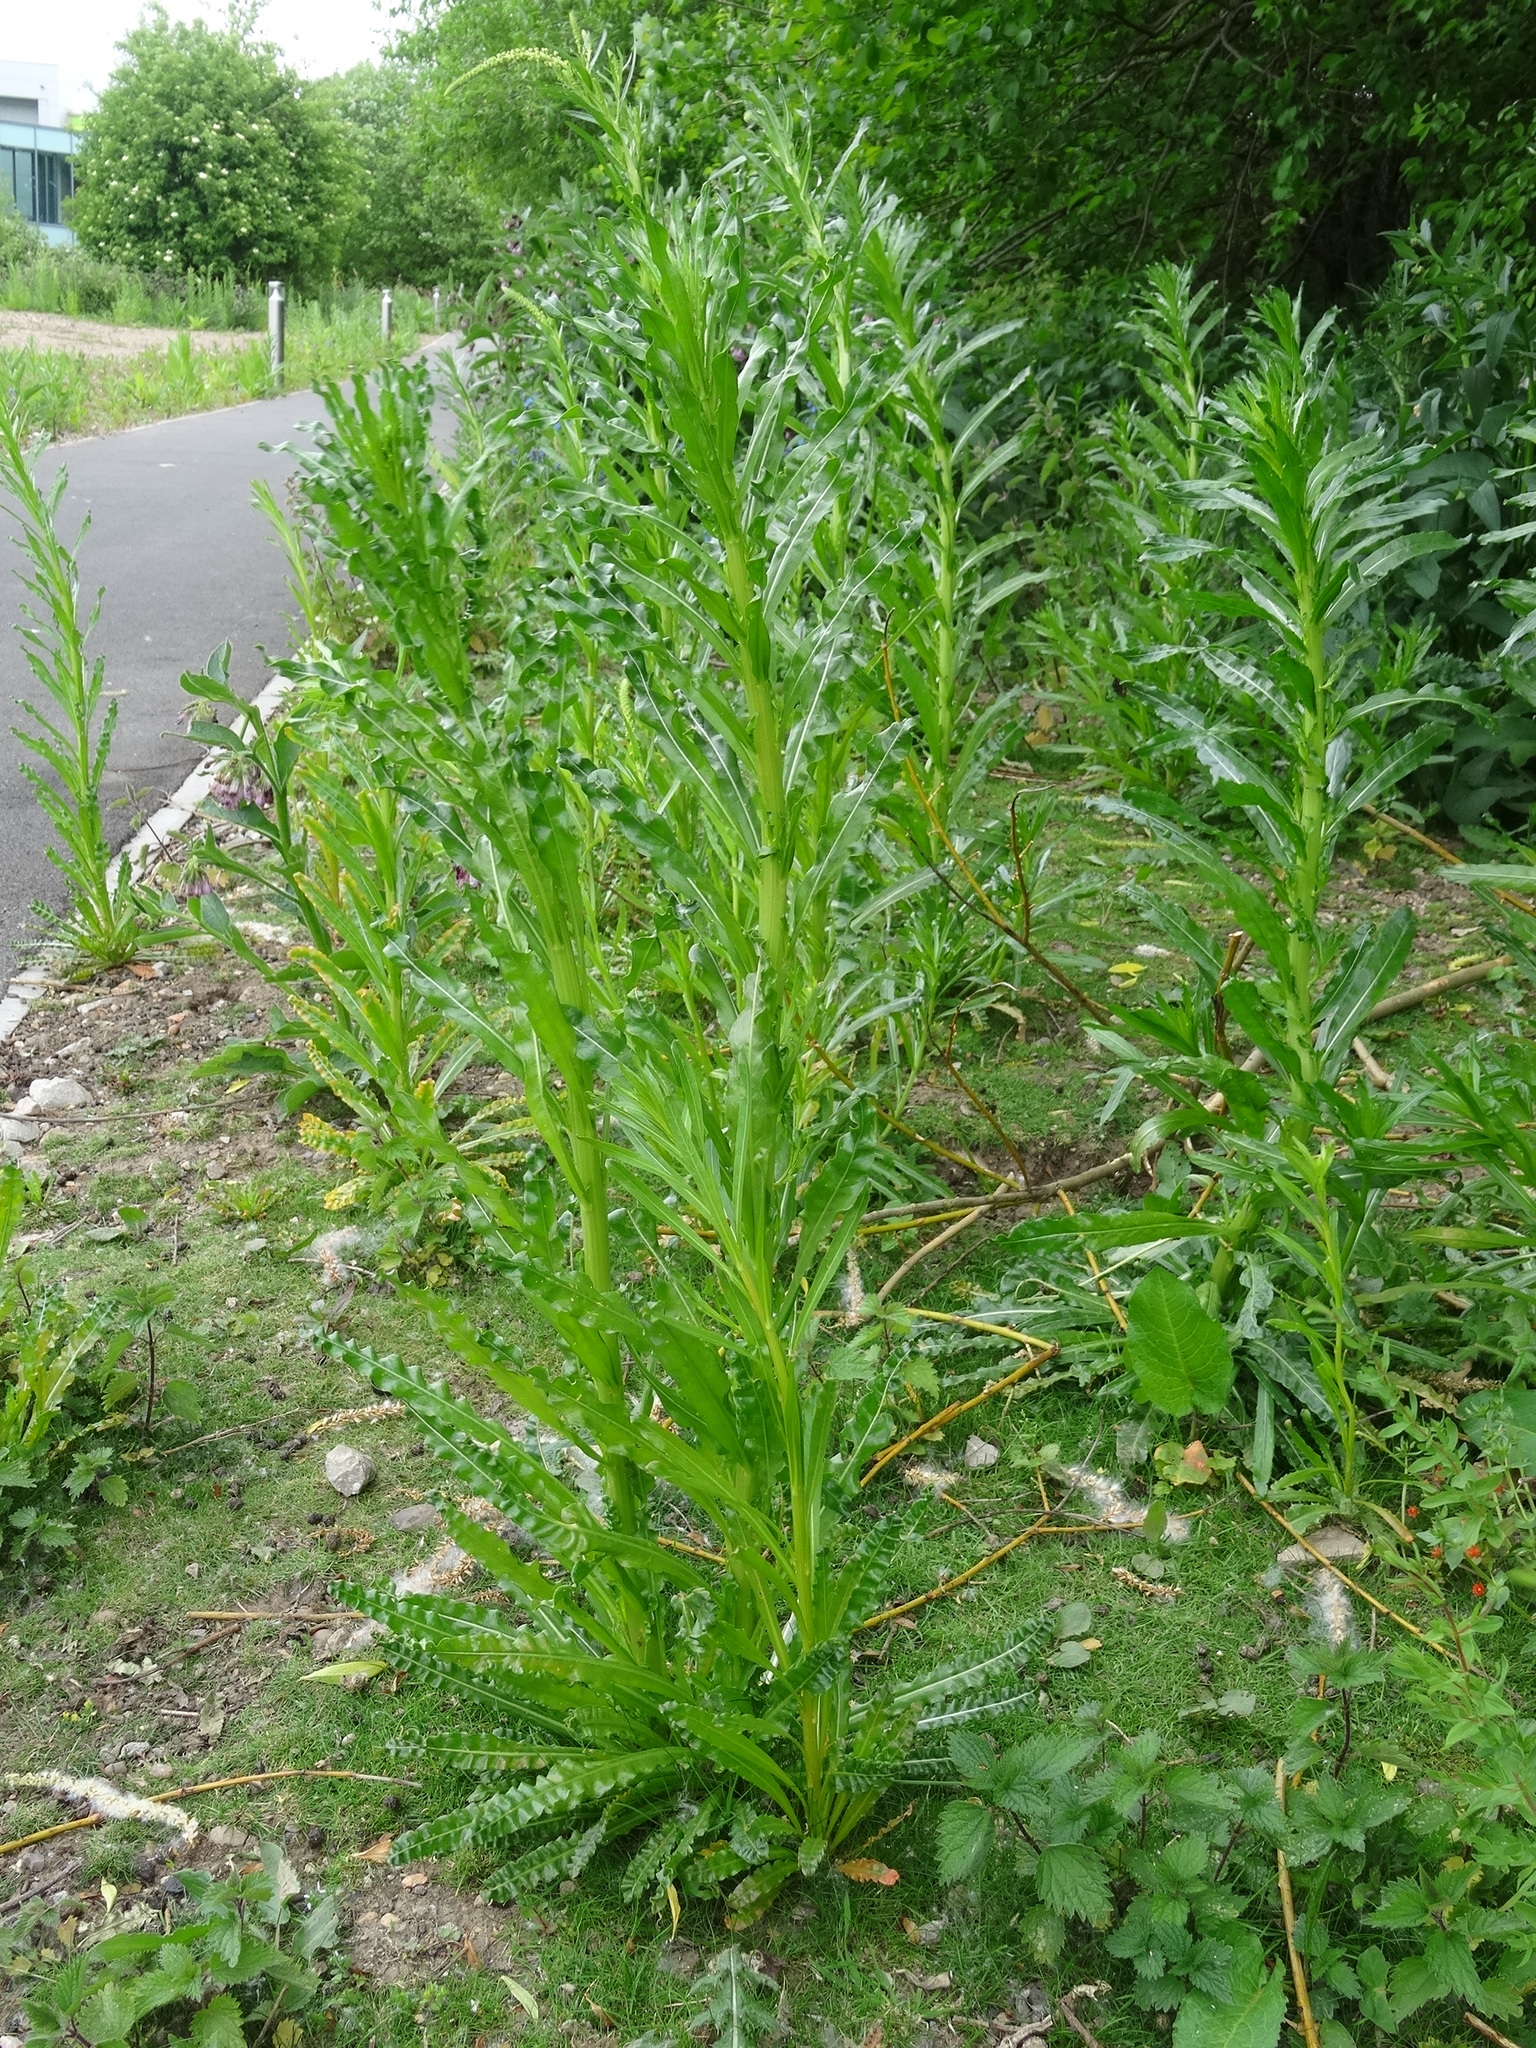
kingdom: Plantae
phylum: Tracheophyta
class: Magnoliopsida
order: Brassicales
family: Resedaceae
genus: Reseda
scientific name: Reseda luteola
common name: Weld
